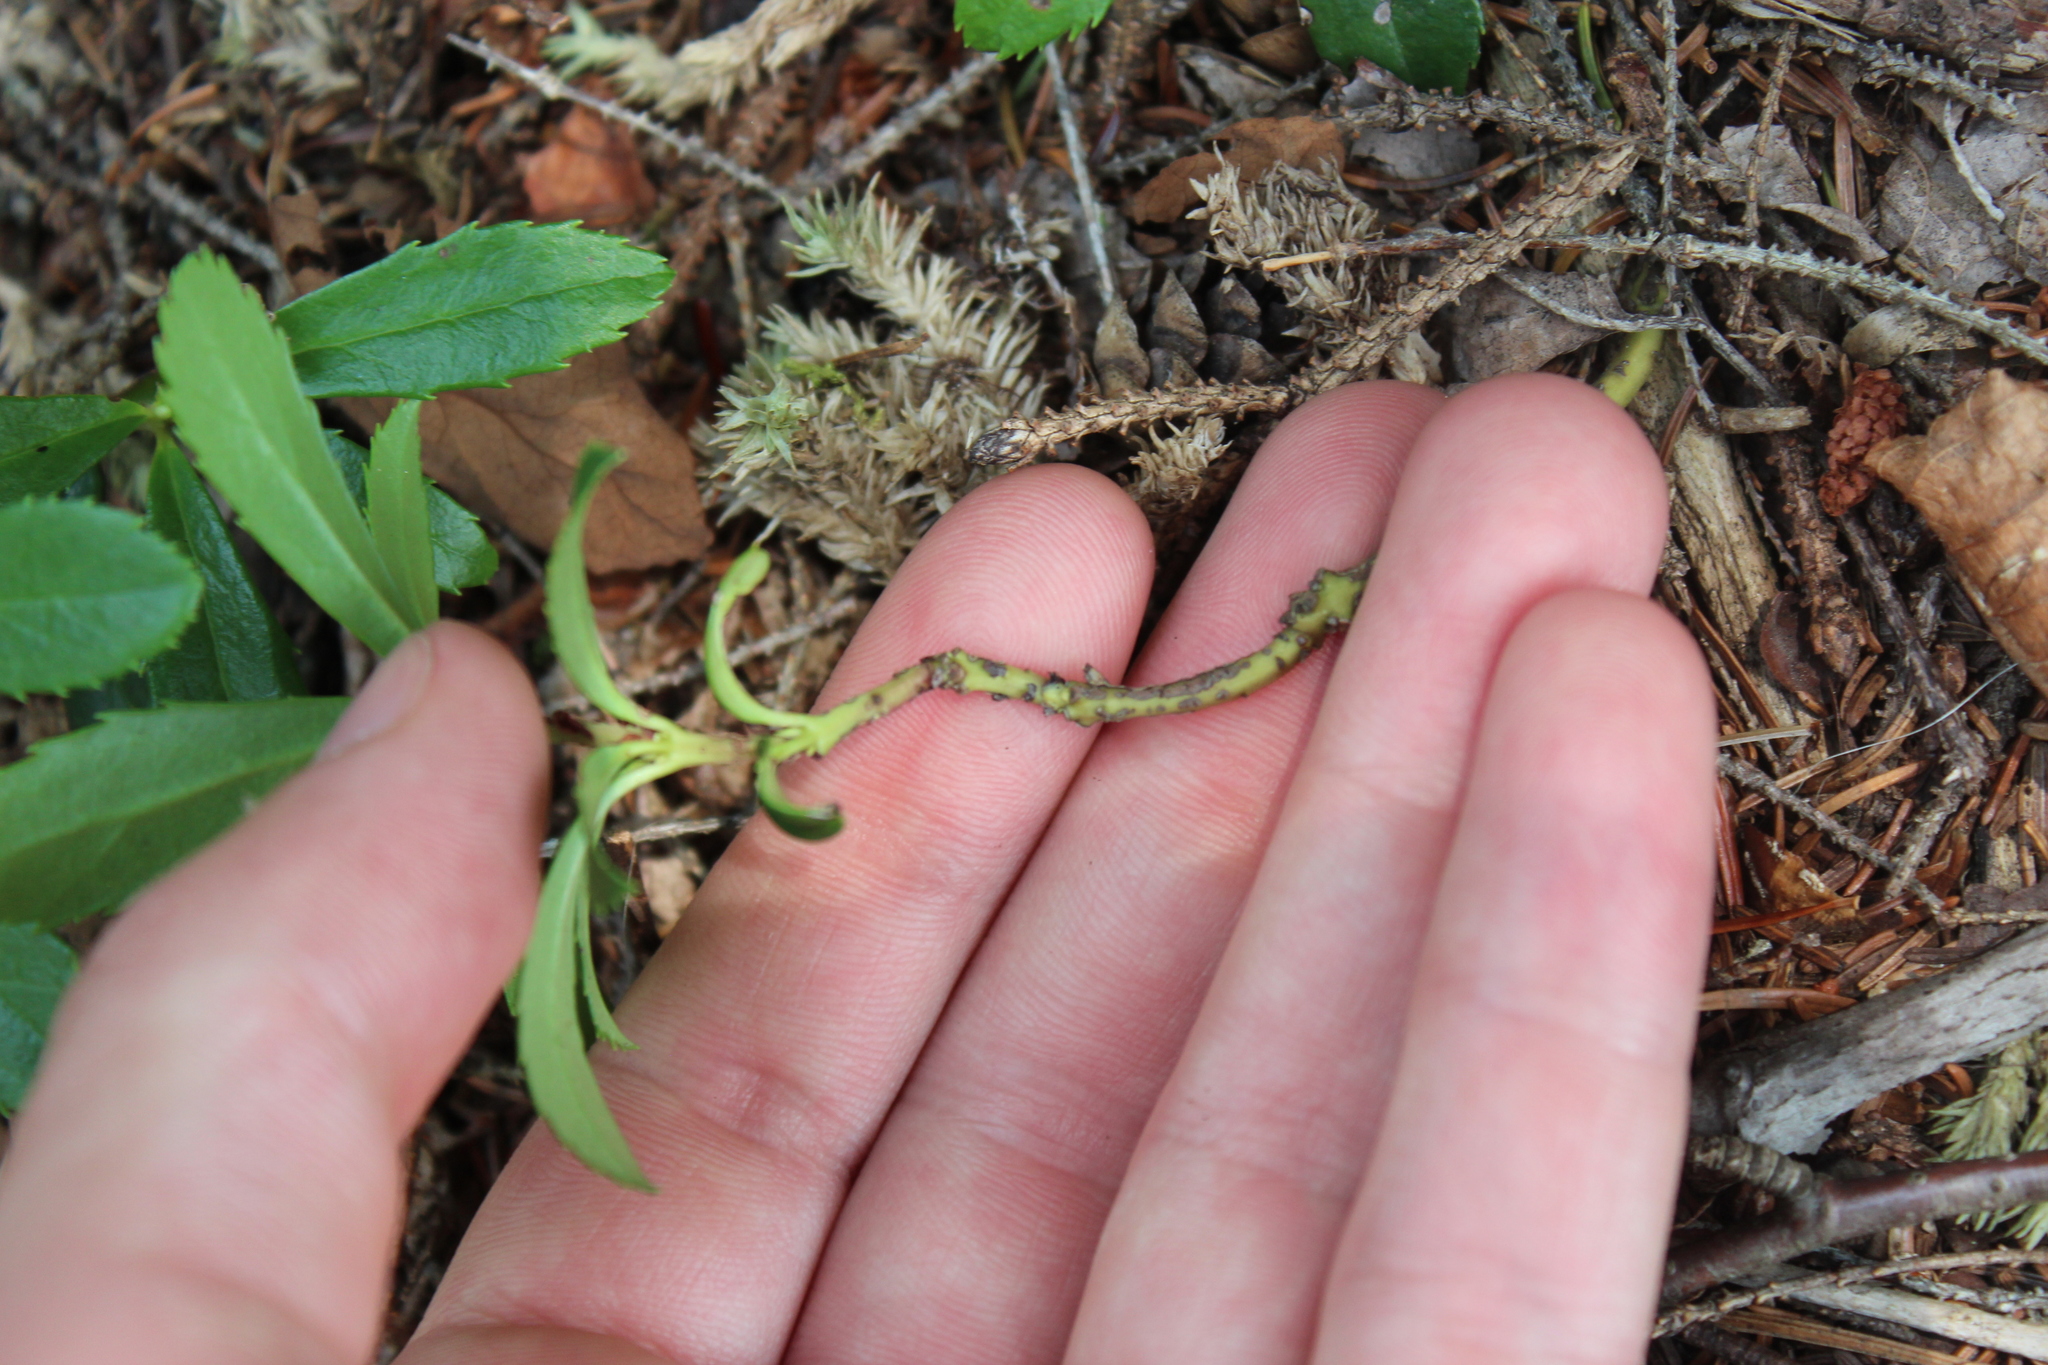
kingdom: Plantae
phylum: Tracheophyta
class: Magnoliopsida
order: Ericales
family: Ericaceae
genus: Chimaphila
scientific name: Chimaphila umbellata
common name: Pipsissewa
